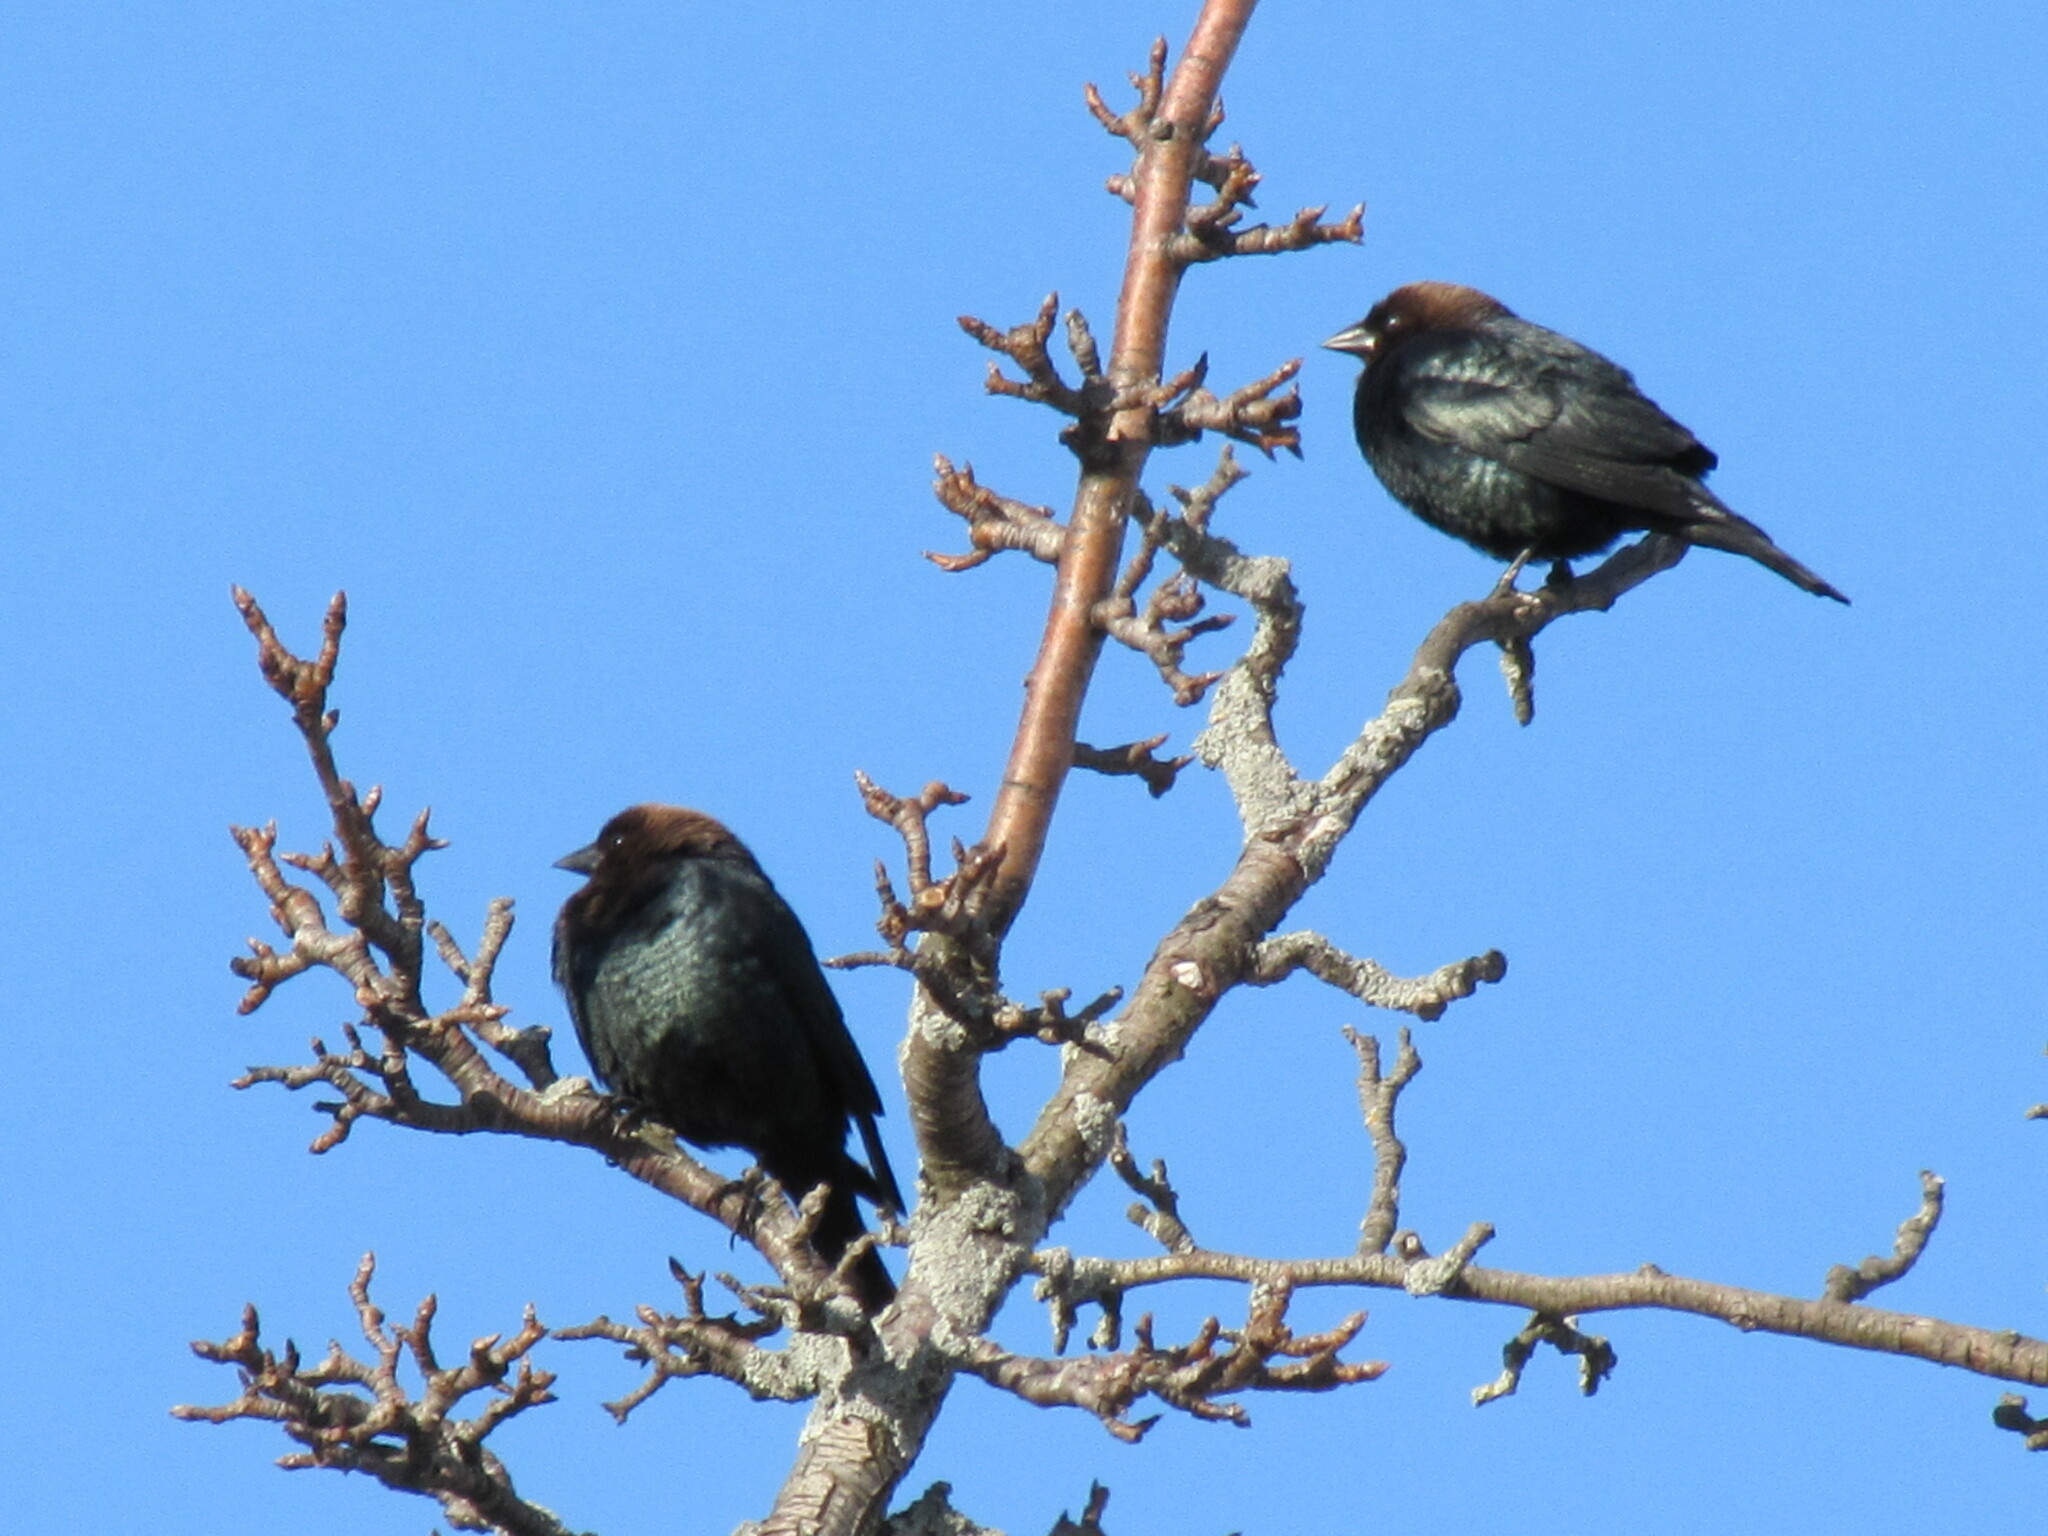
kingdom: Animalia
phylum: Chordata
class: Aves
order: Passeriformes
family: Icteridae
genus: Molothrus
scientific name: Molothrus ater
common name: Brown-headed cowbird
